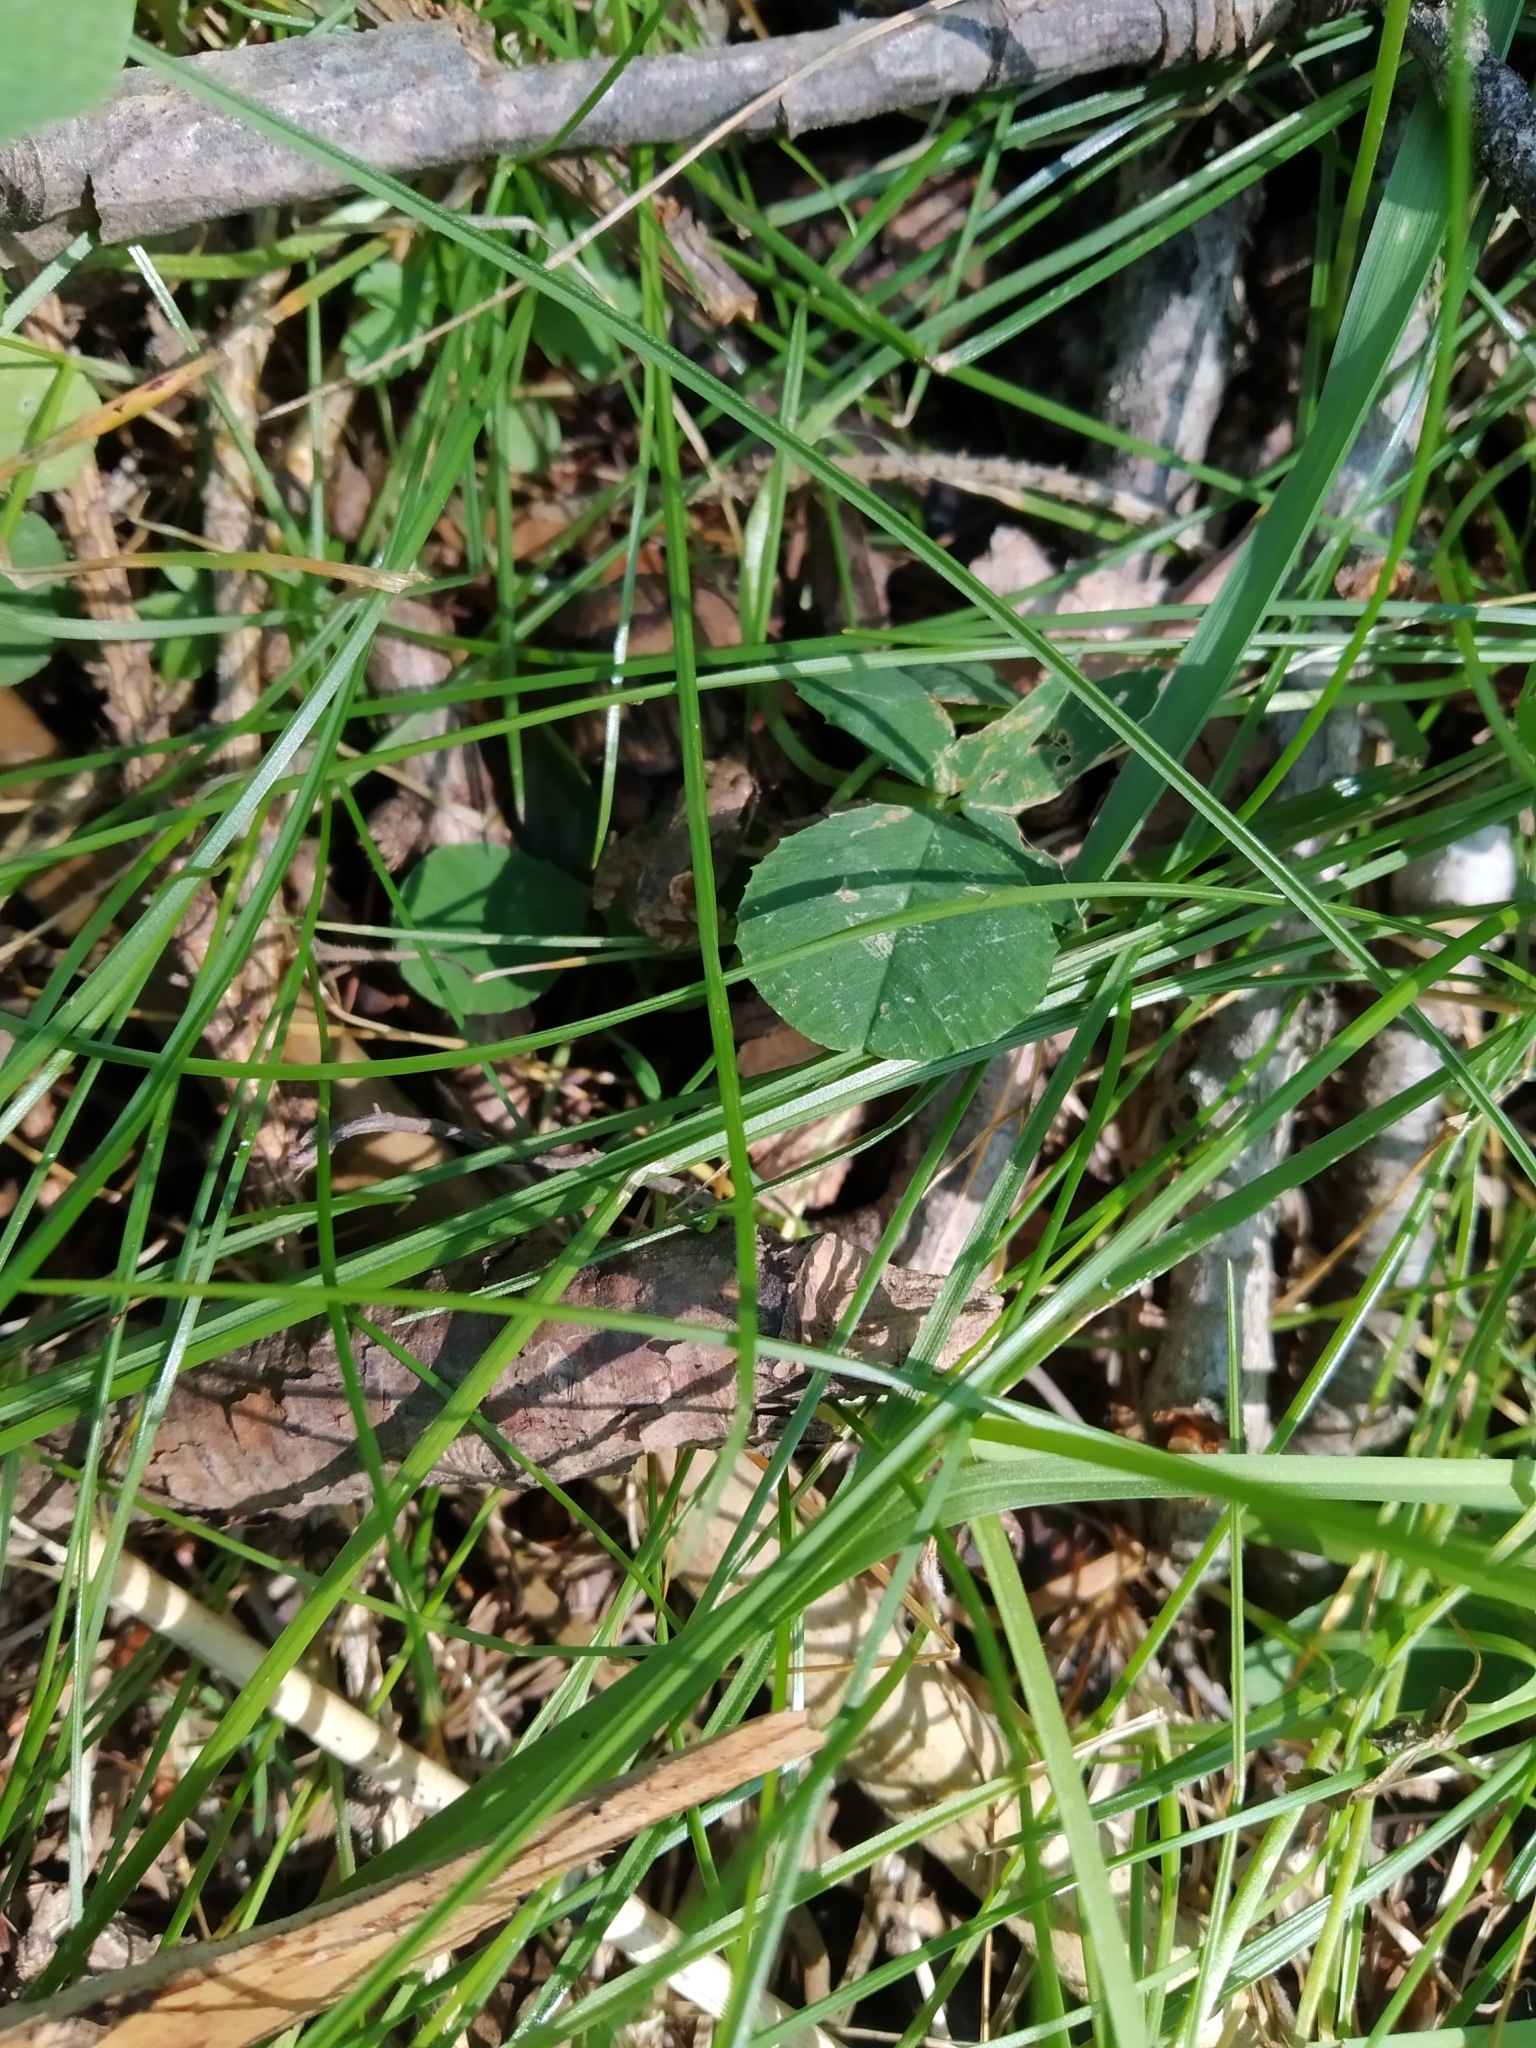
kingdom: Animalia
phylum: Chordata
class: Amphibia
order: Anura
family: Ranidae
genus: Rana
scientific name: Rana temporaria
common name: Common frog
